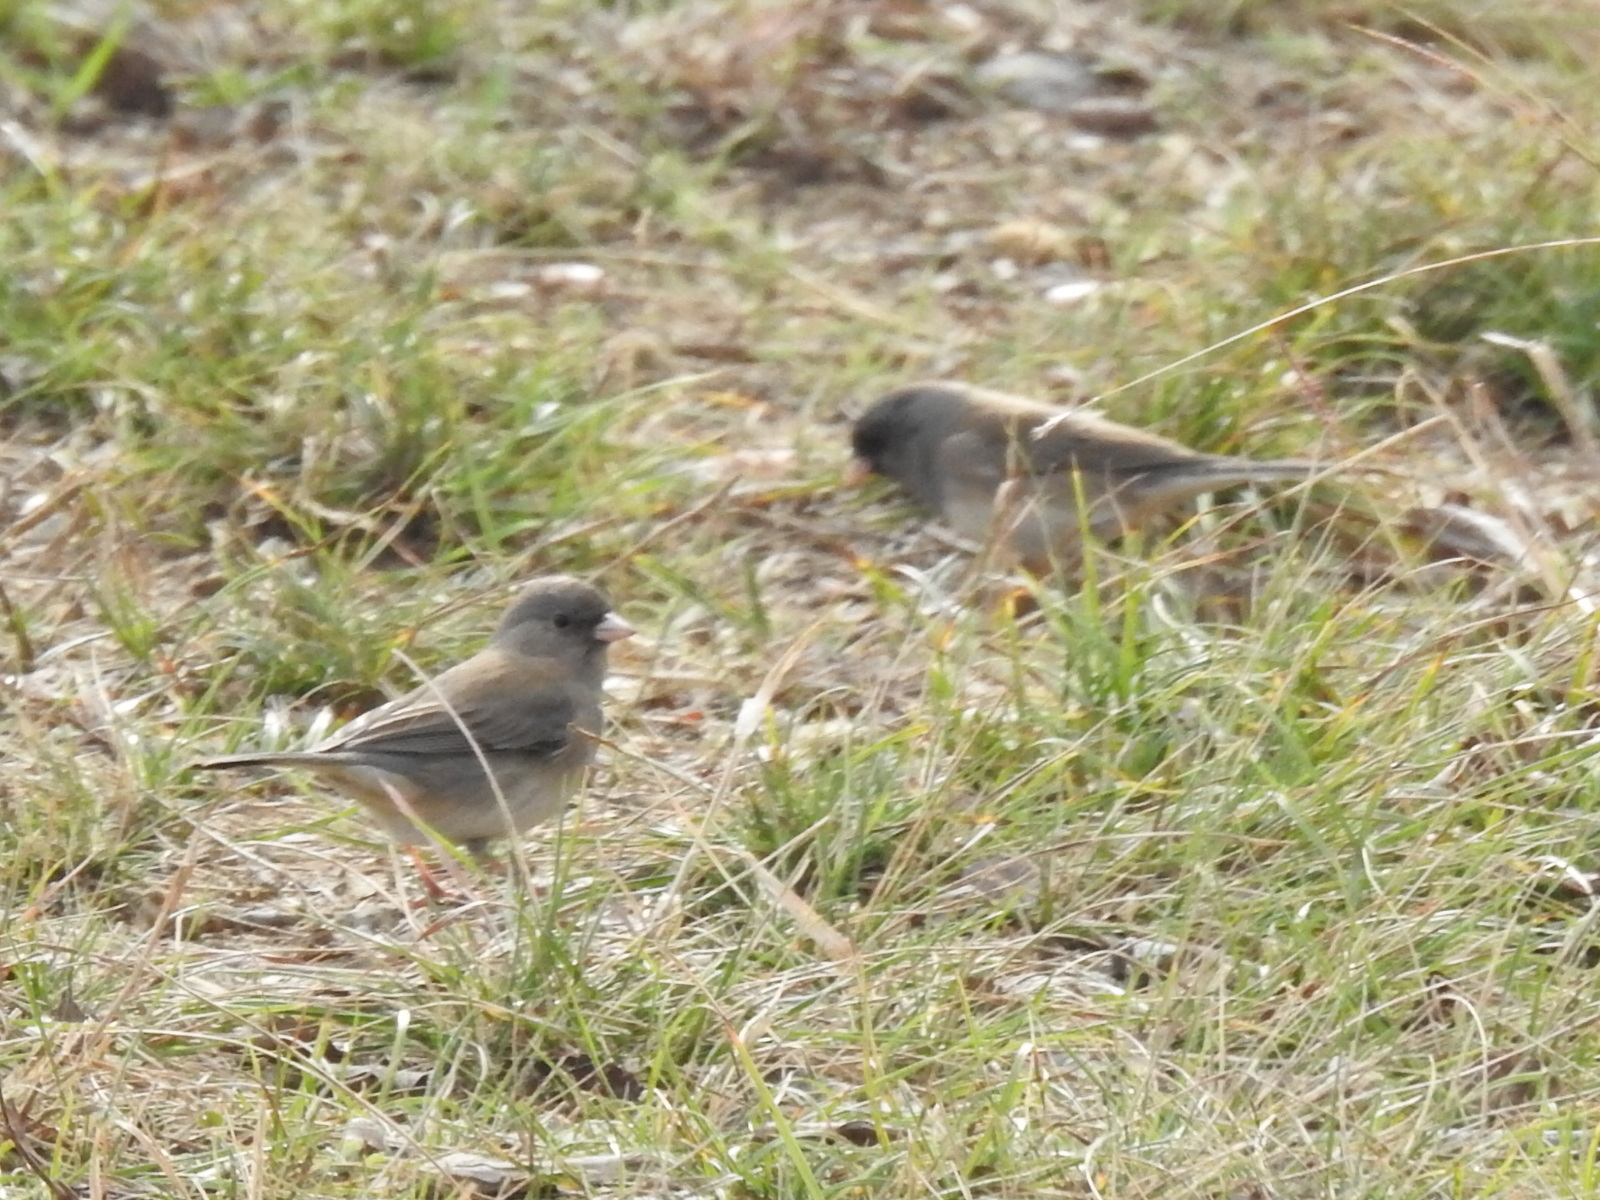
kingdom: Animalia
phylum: Chordata
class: Aves
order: Passeriformes
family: Passerellidae
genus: Junco
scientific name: Junco hyemalis
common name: Dark-eyed junco
